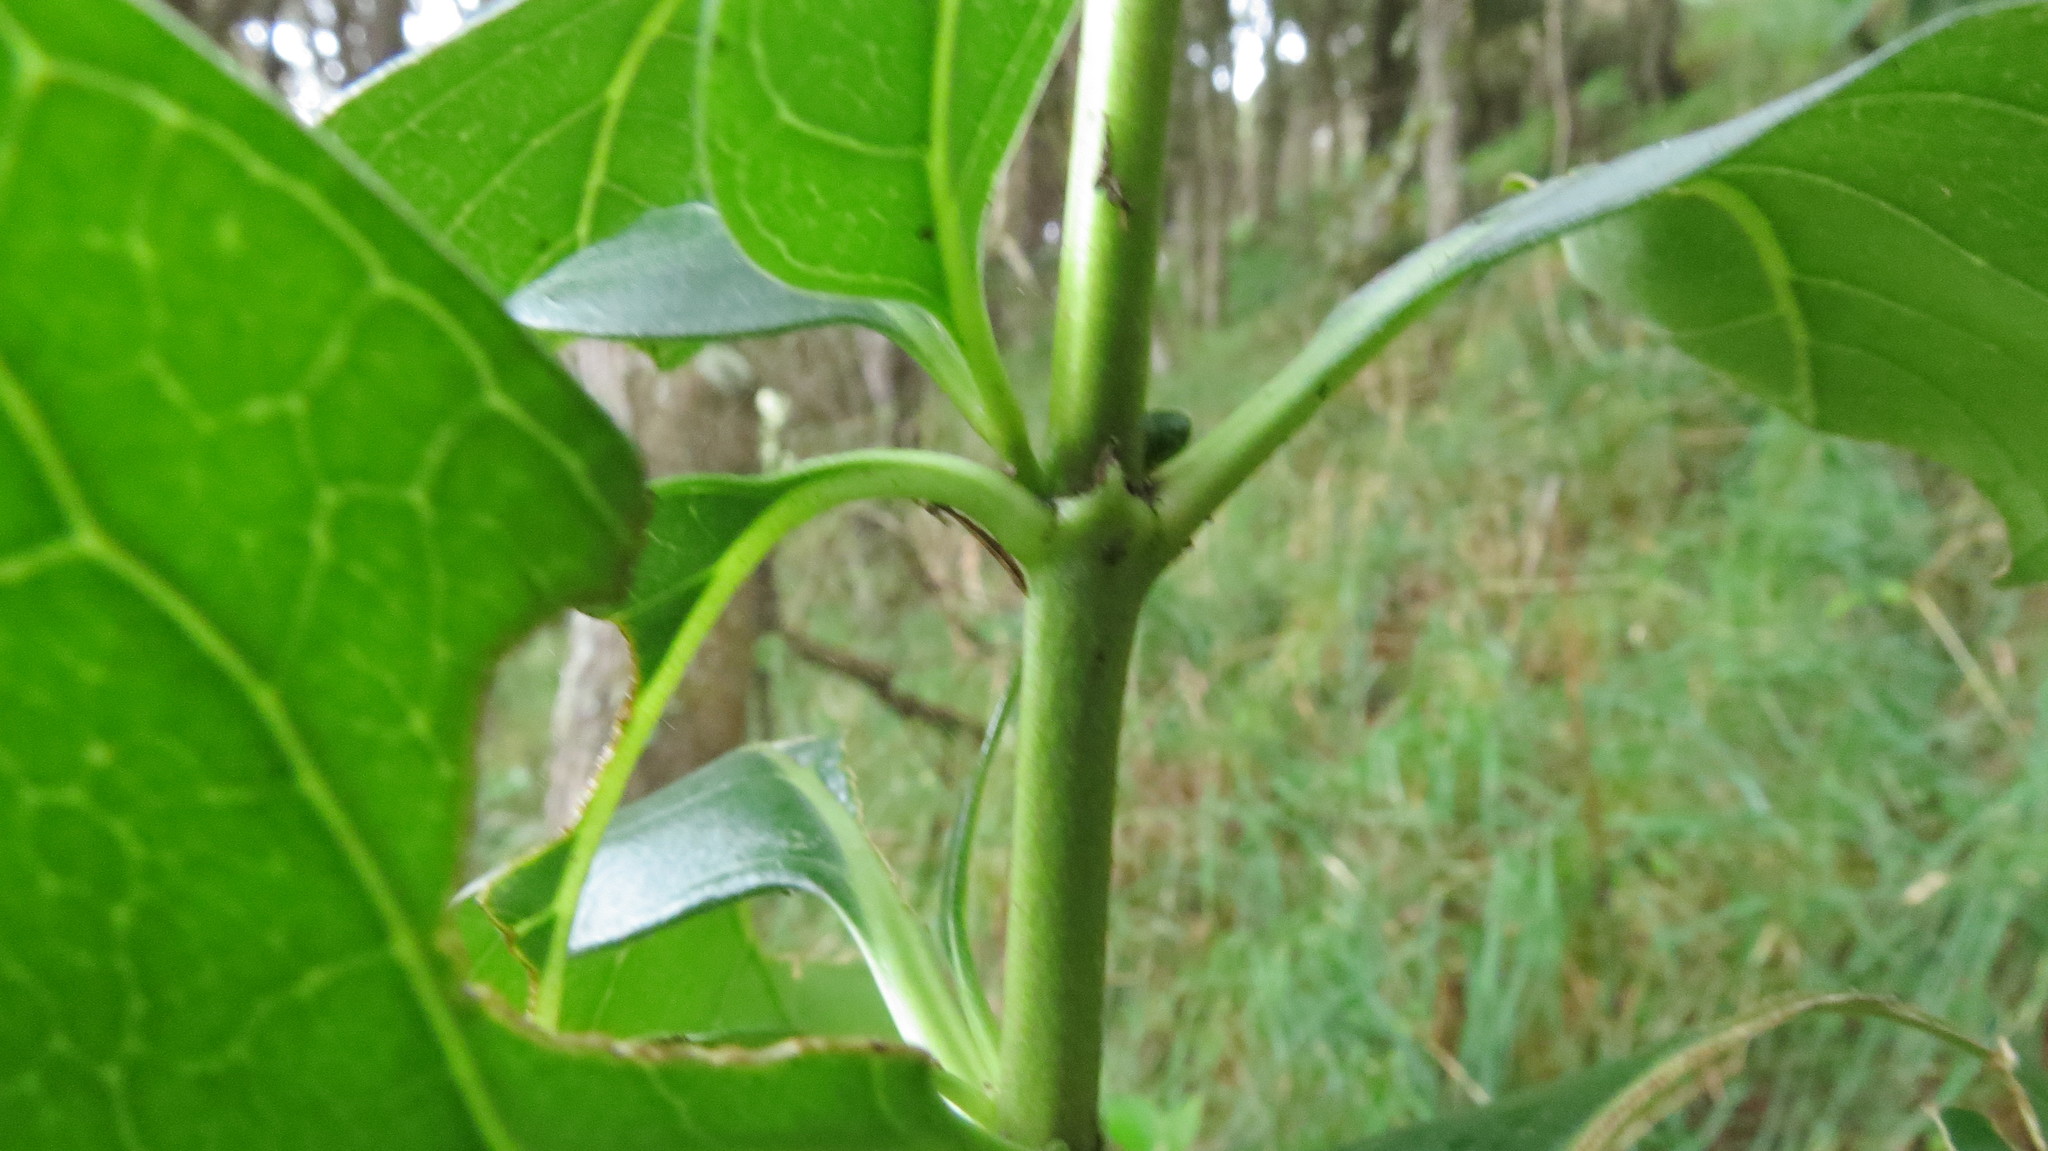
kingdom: Plantae
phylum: Tracheophyta
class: Magnoliopsida
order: Gentianales
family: Rubiaceae
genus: Coprosma
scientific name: Coprosma robusta
